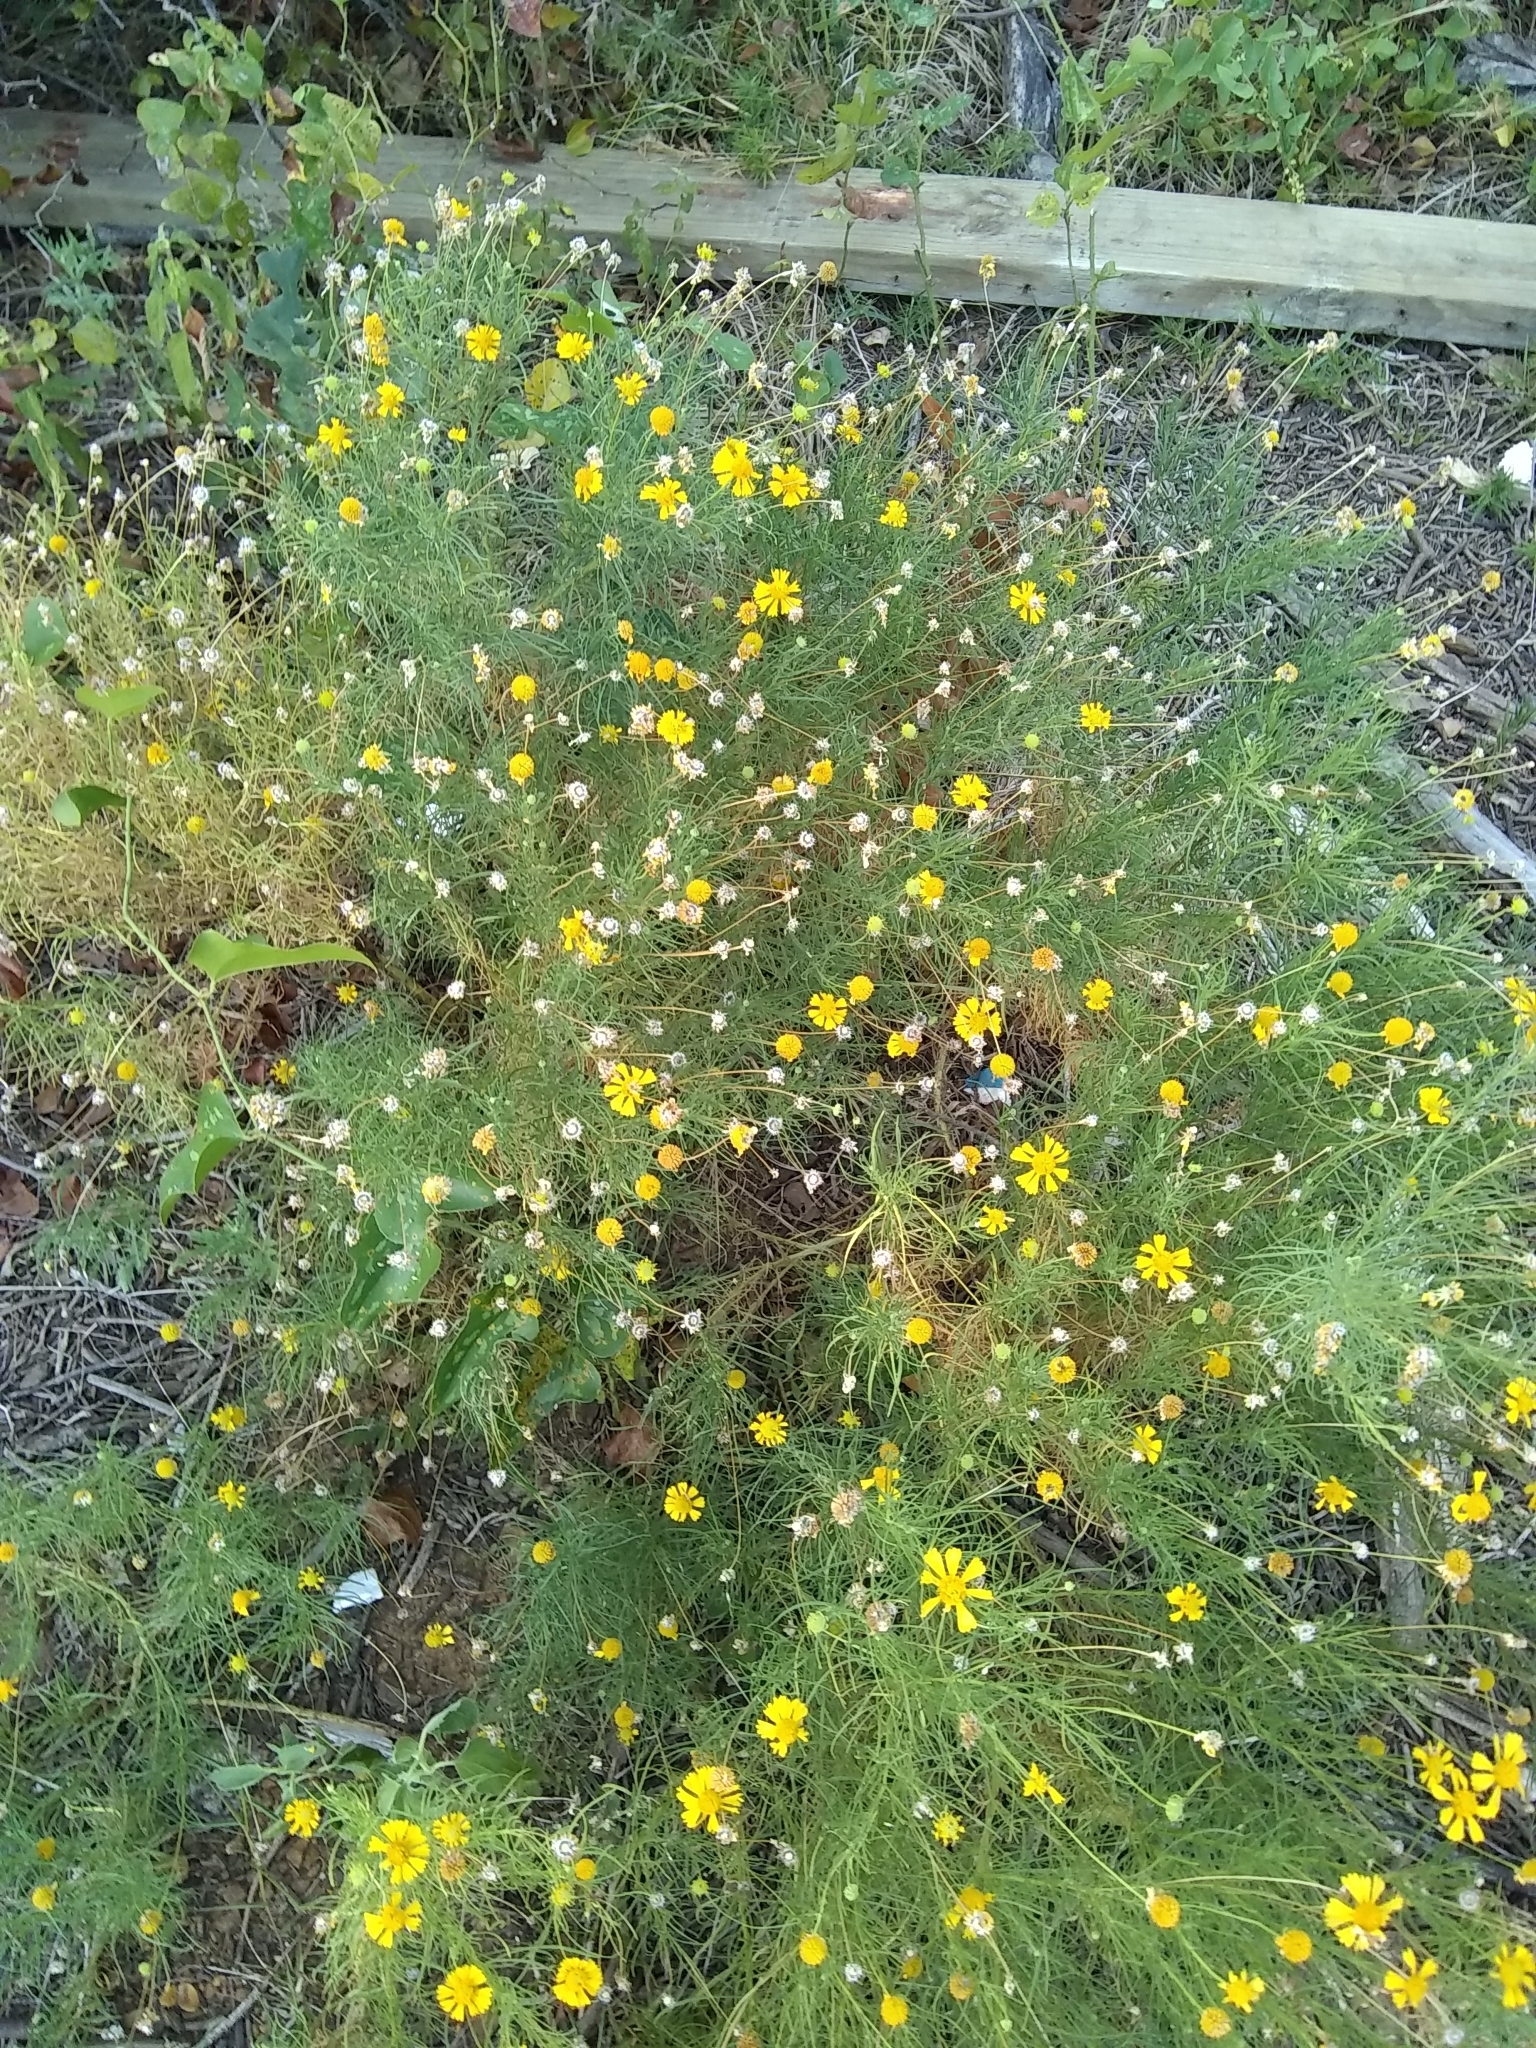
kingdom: Plantae
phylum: Tracheophyta
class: Magnoliopsida
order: Asterales
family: Asteraceae
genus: Helenium
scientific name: Helenium amarum
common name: Bitter sneezeweed
